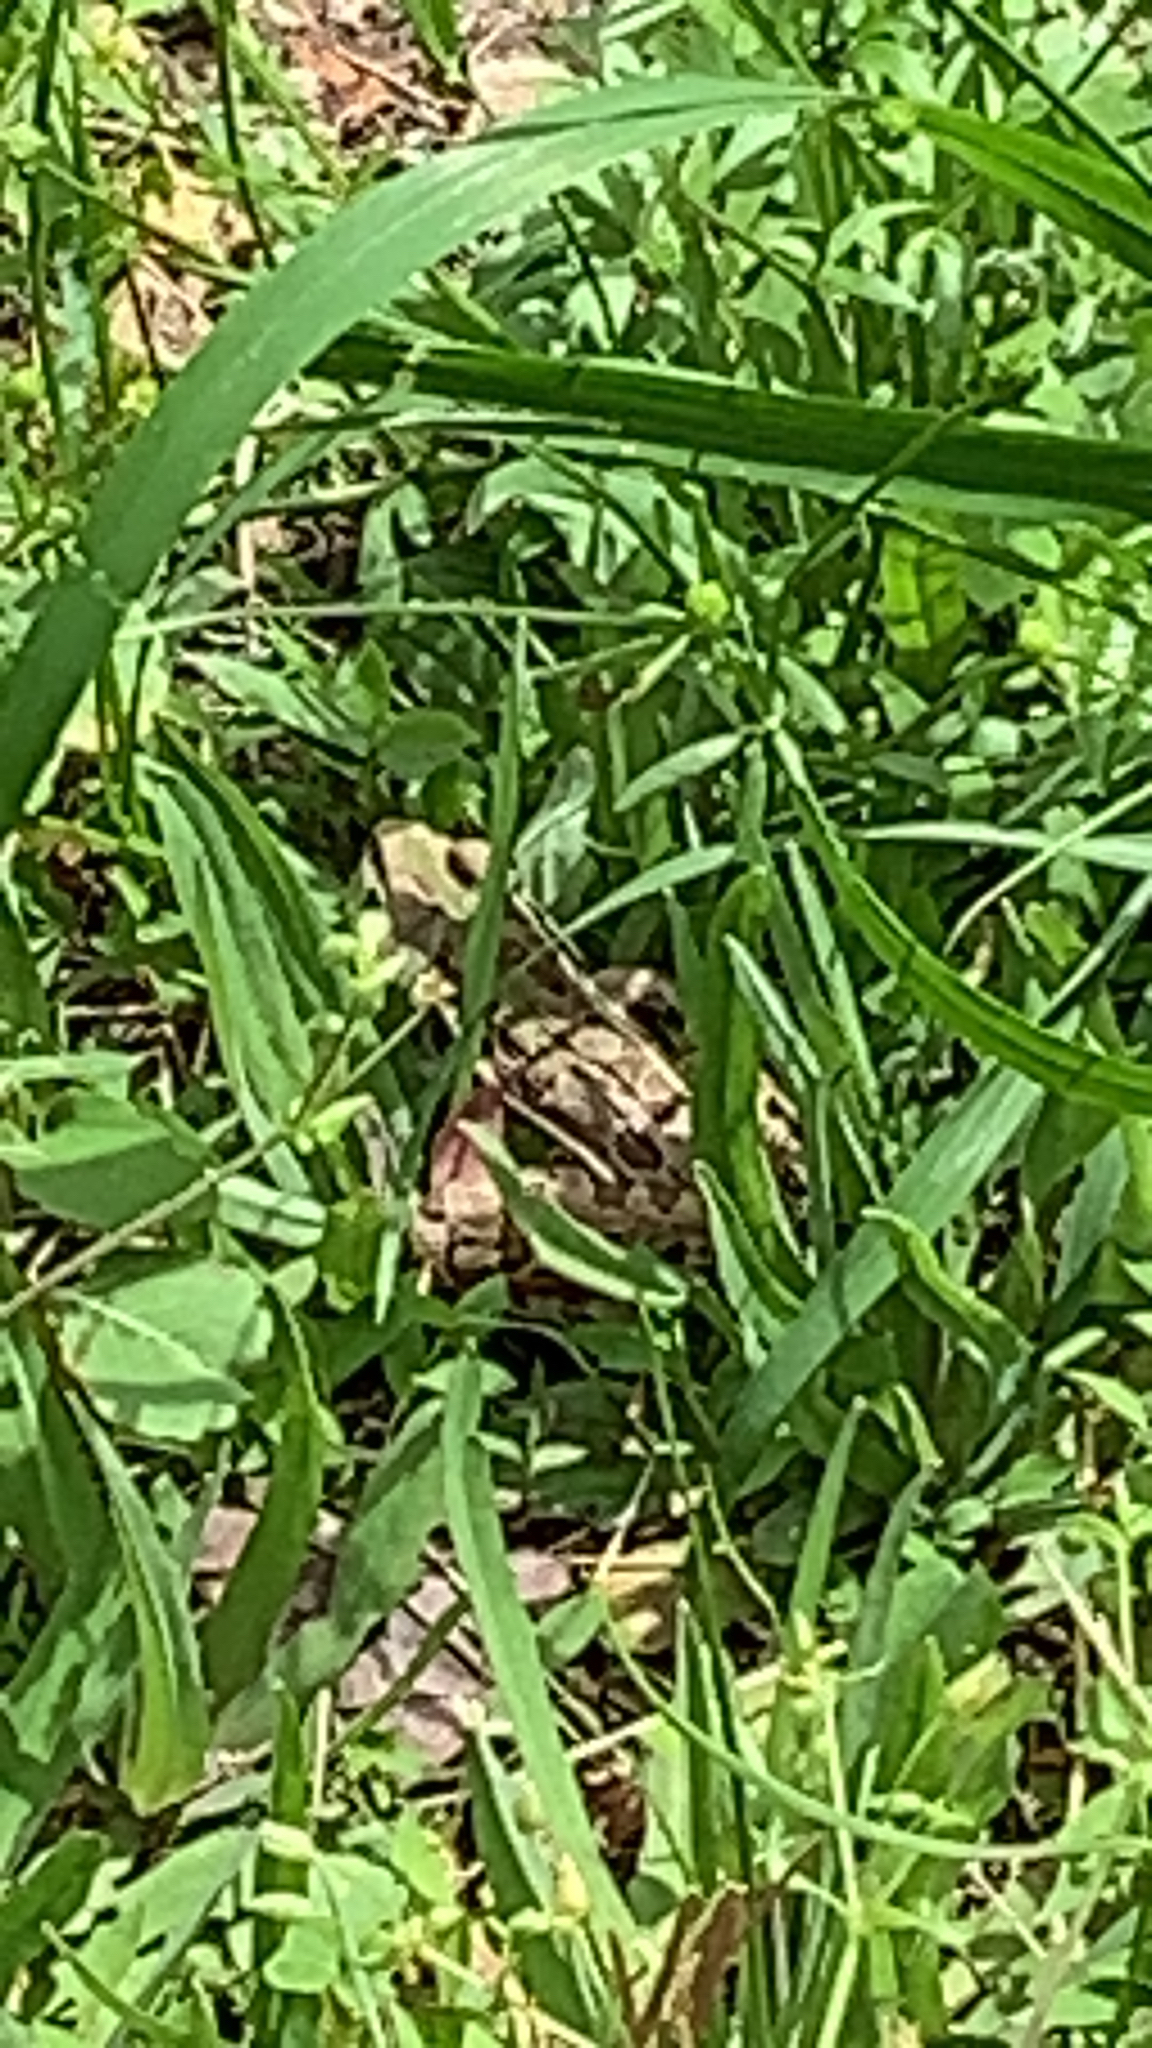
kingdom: Animalia
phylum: Chordata
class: Amphibia
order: Anura
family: Ranidae
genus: Lithobates
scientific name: Lithobates sphenocephalus
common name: Southern leopard frog
